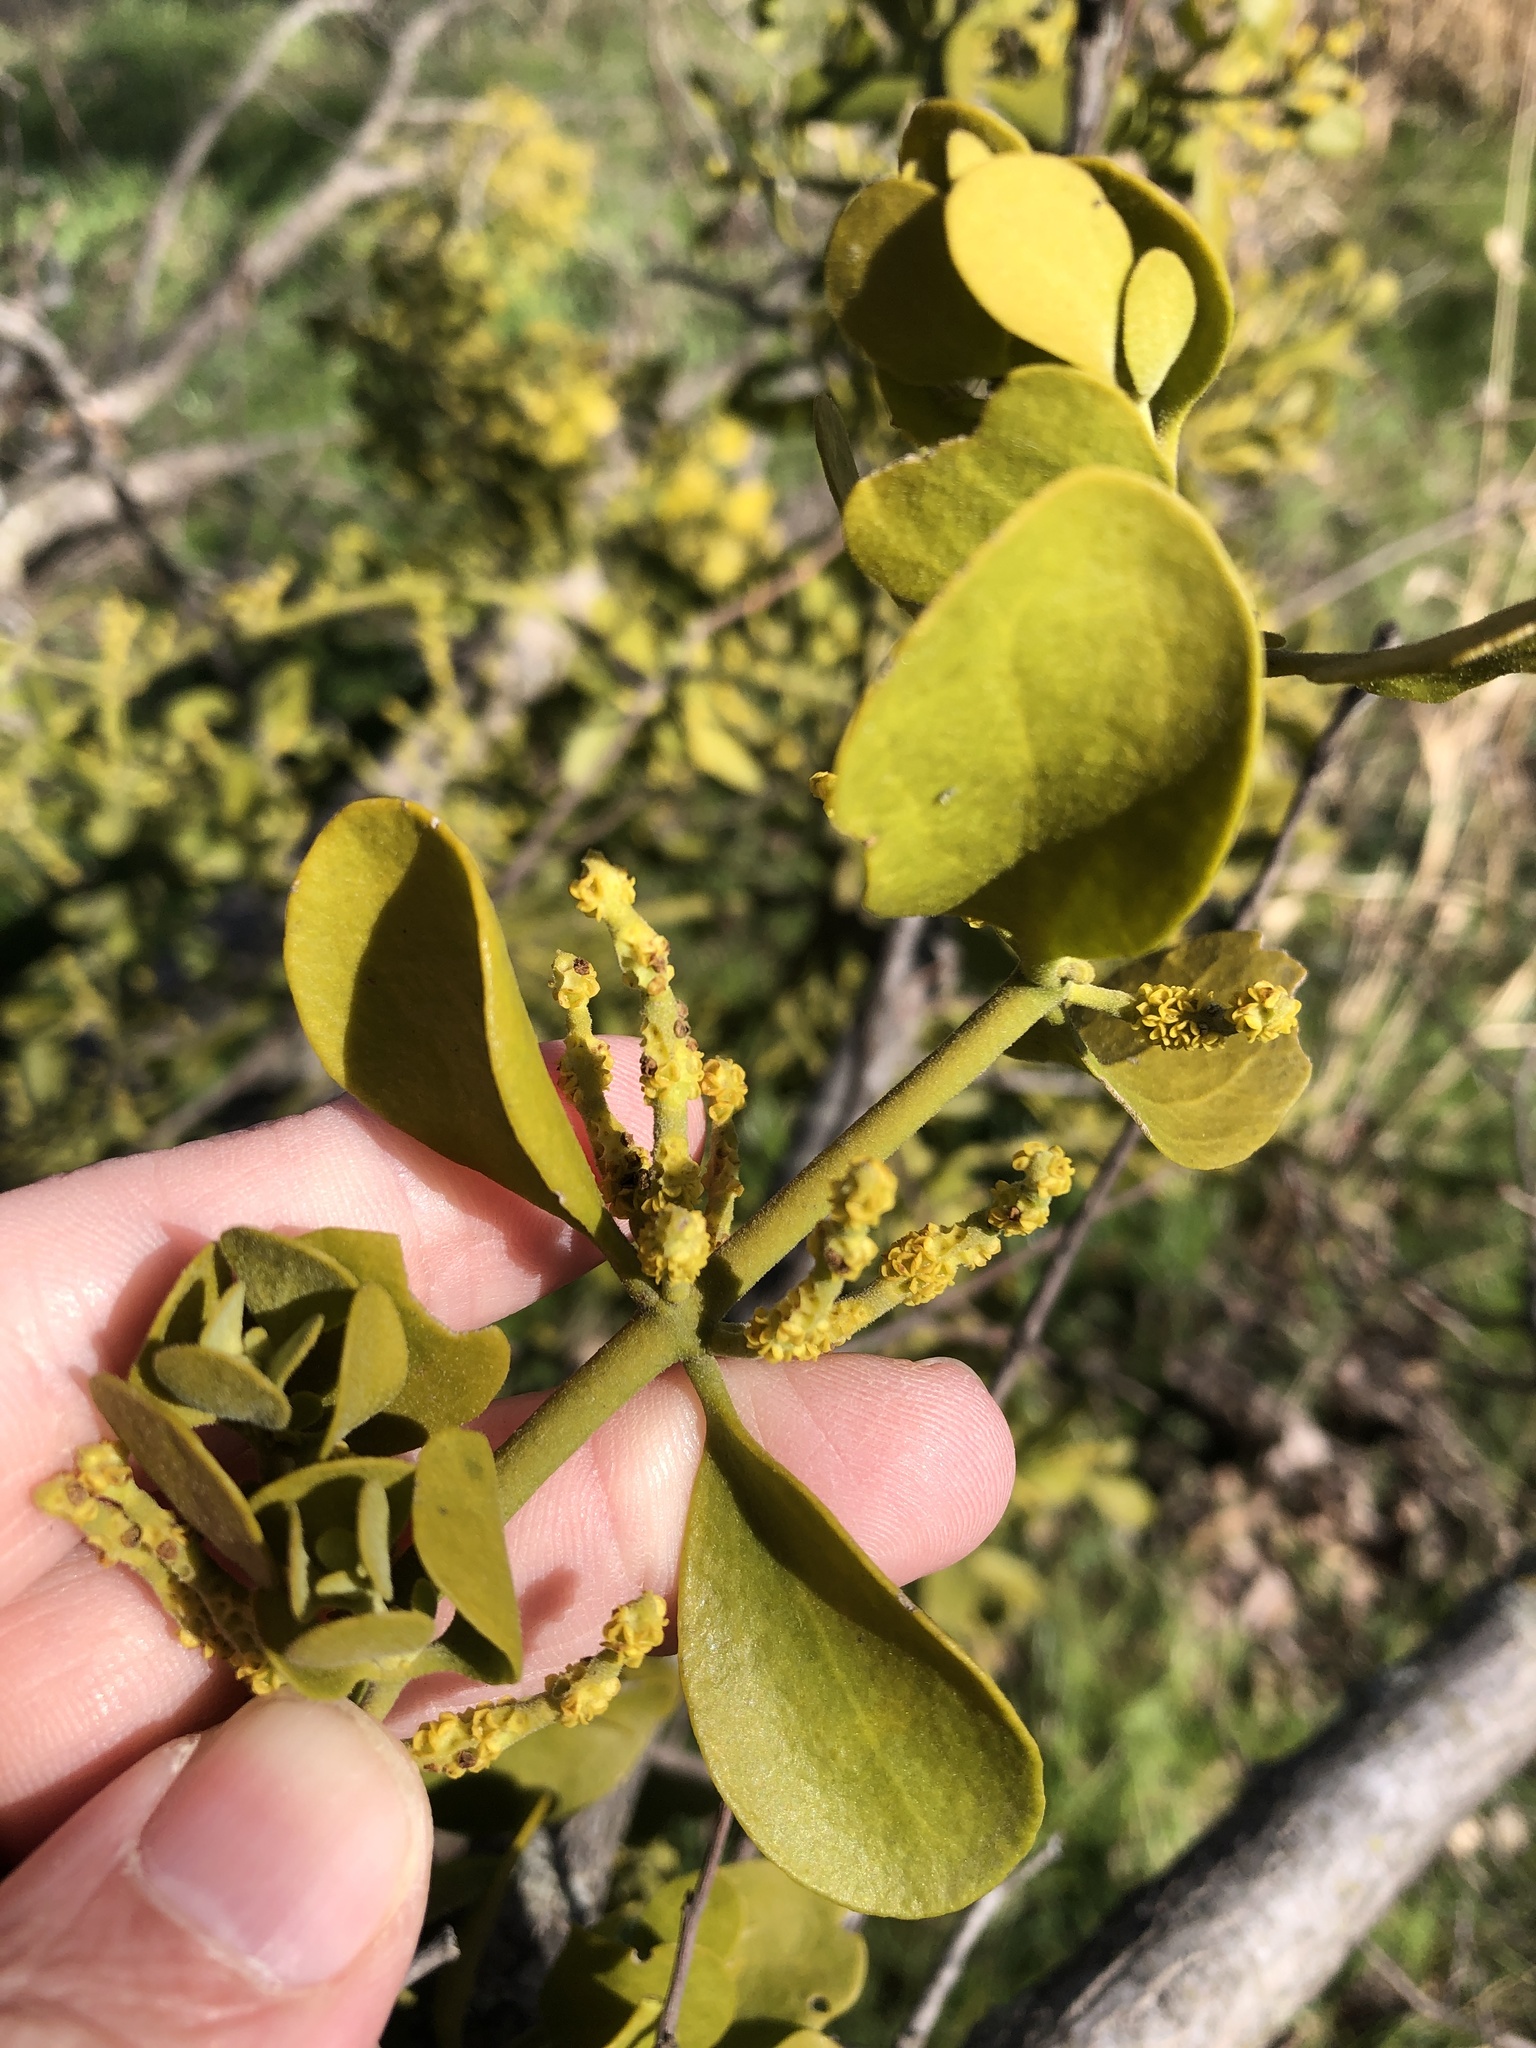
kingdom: Plantae
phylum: Tracheophyta
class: Magnoliopsida
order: Santalales
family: Viscaceae
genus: Phoradendron
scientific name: Phoradendron leucarpum
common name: Pacific mistletoe
